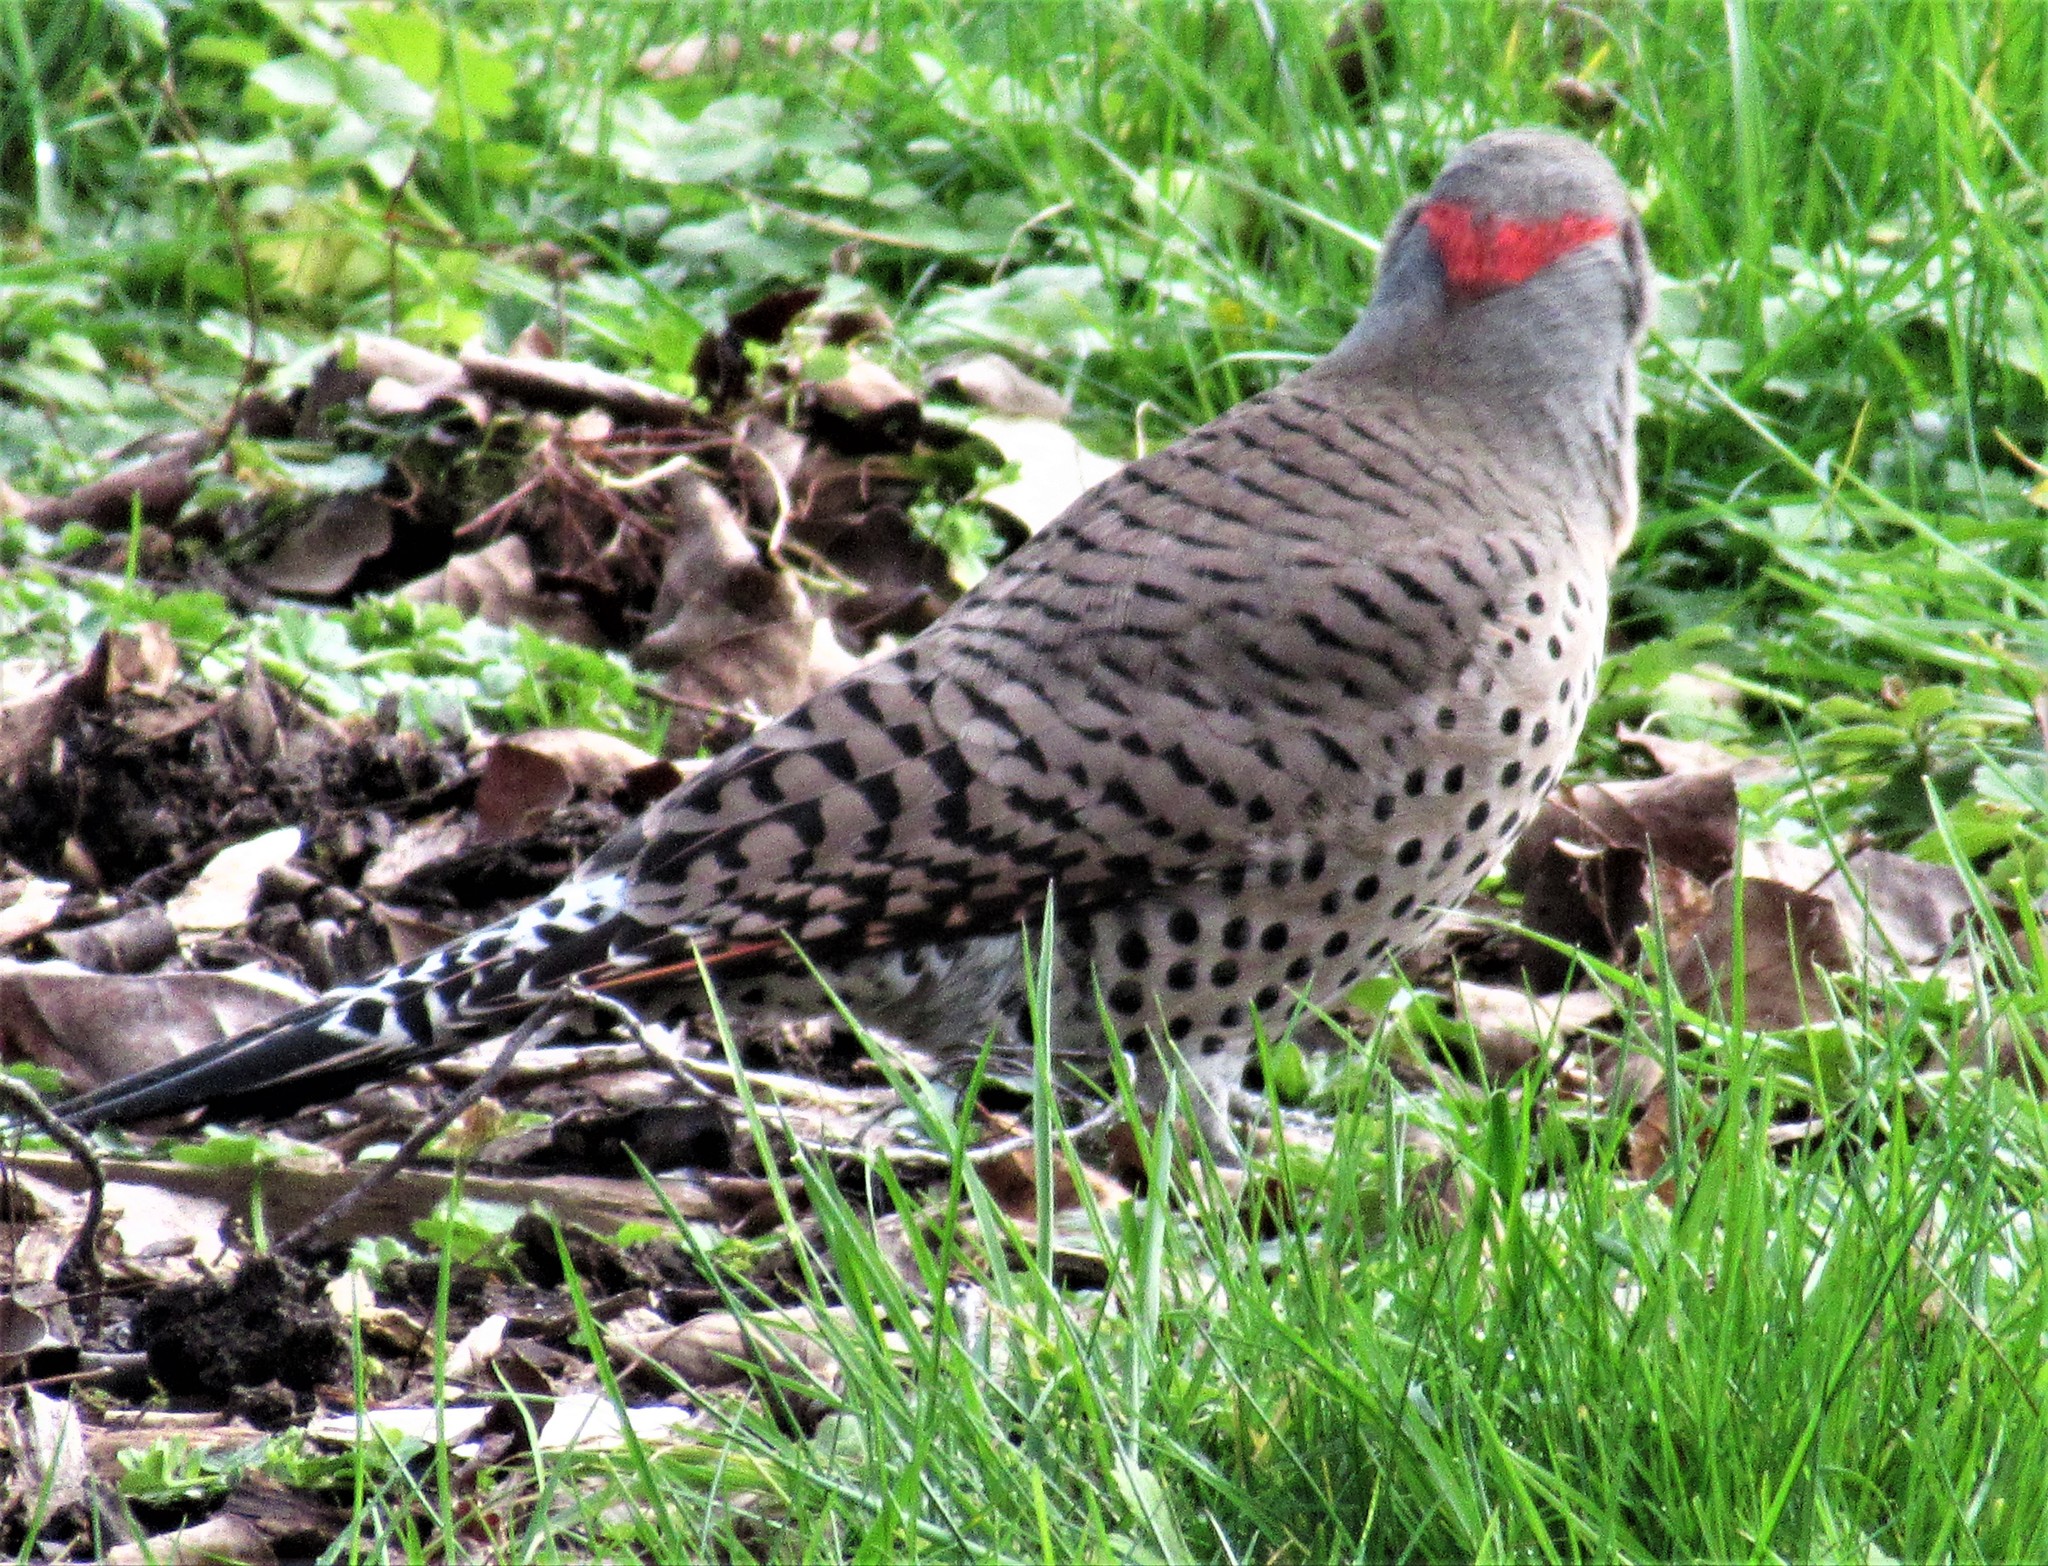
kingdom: Animalia
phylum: Chordata
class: Aves
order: Piciformes
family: Picidae
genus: Colaptes
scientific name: Colaptes
